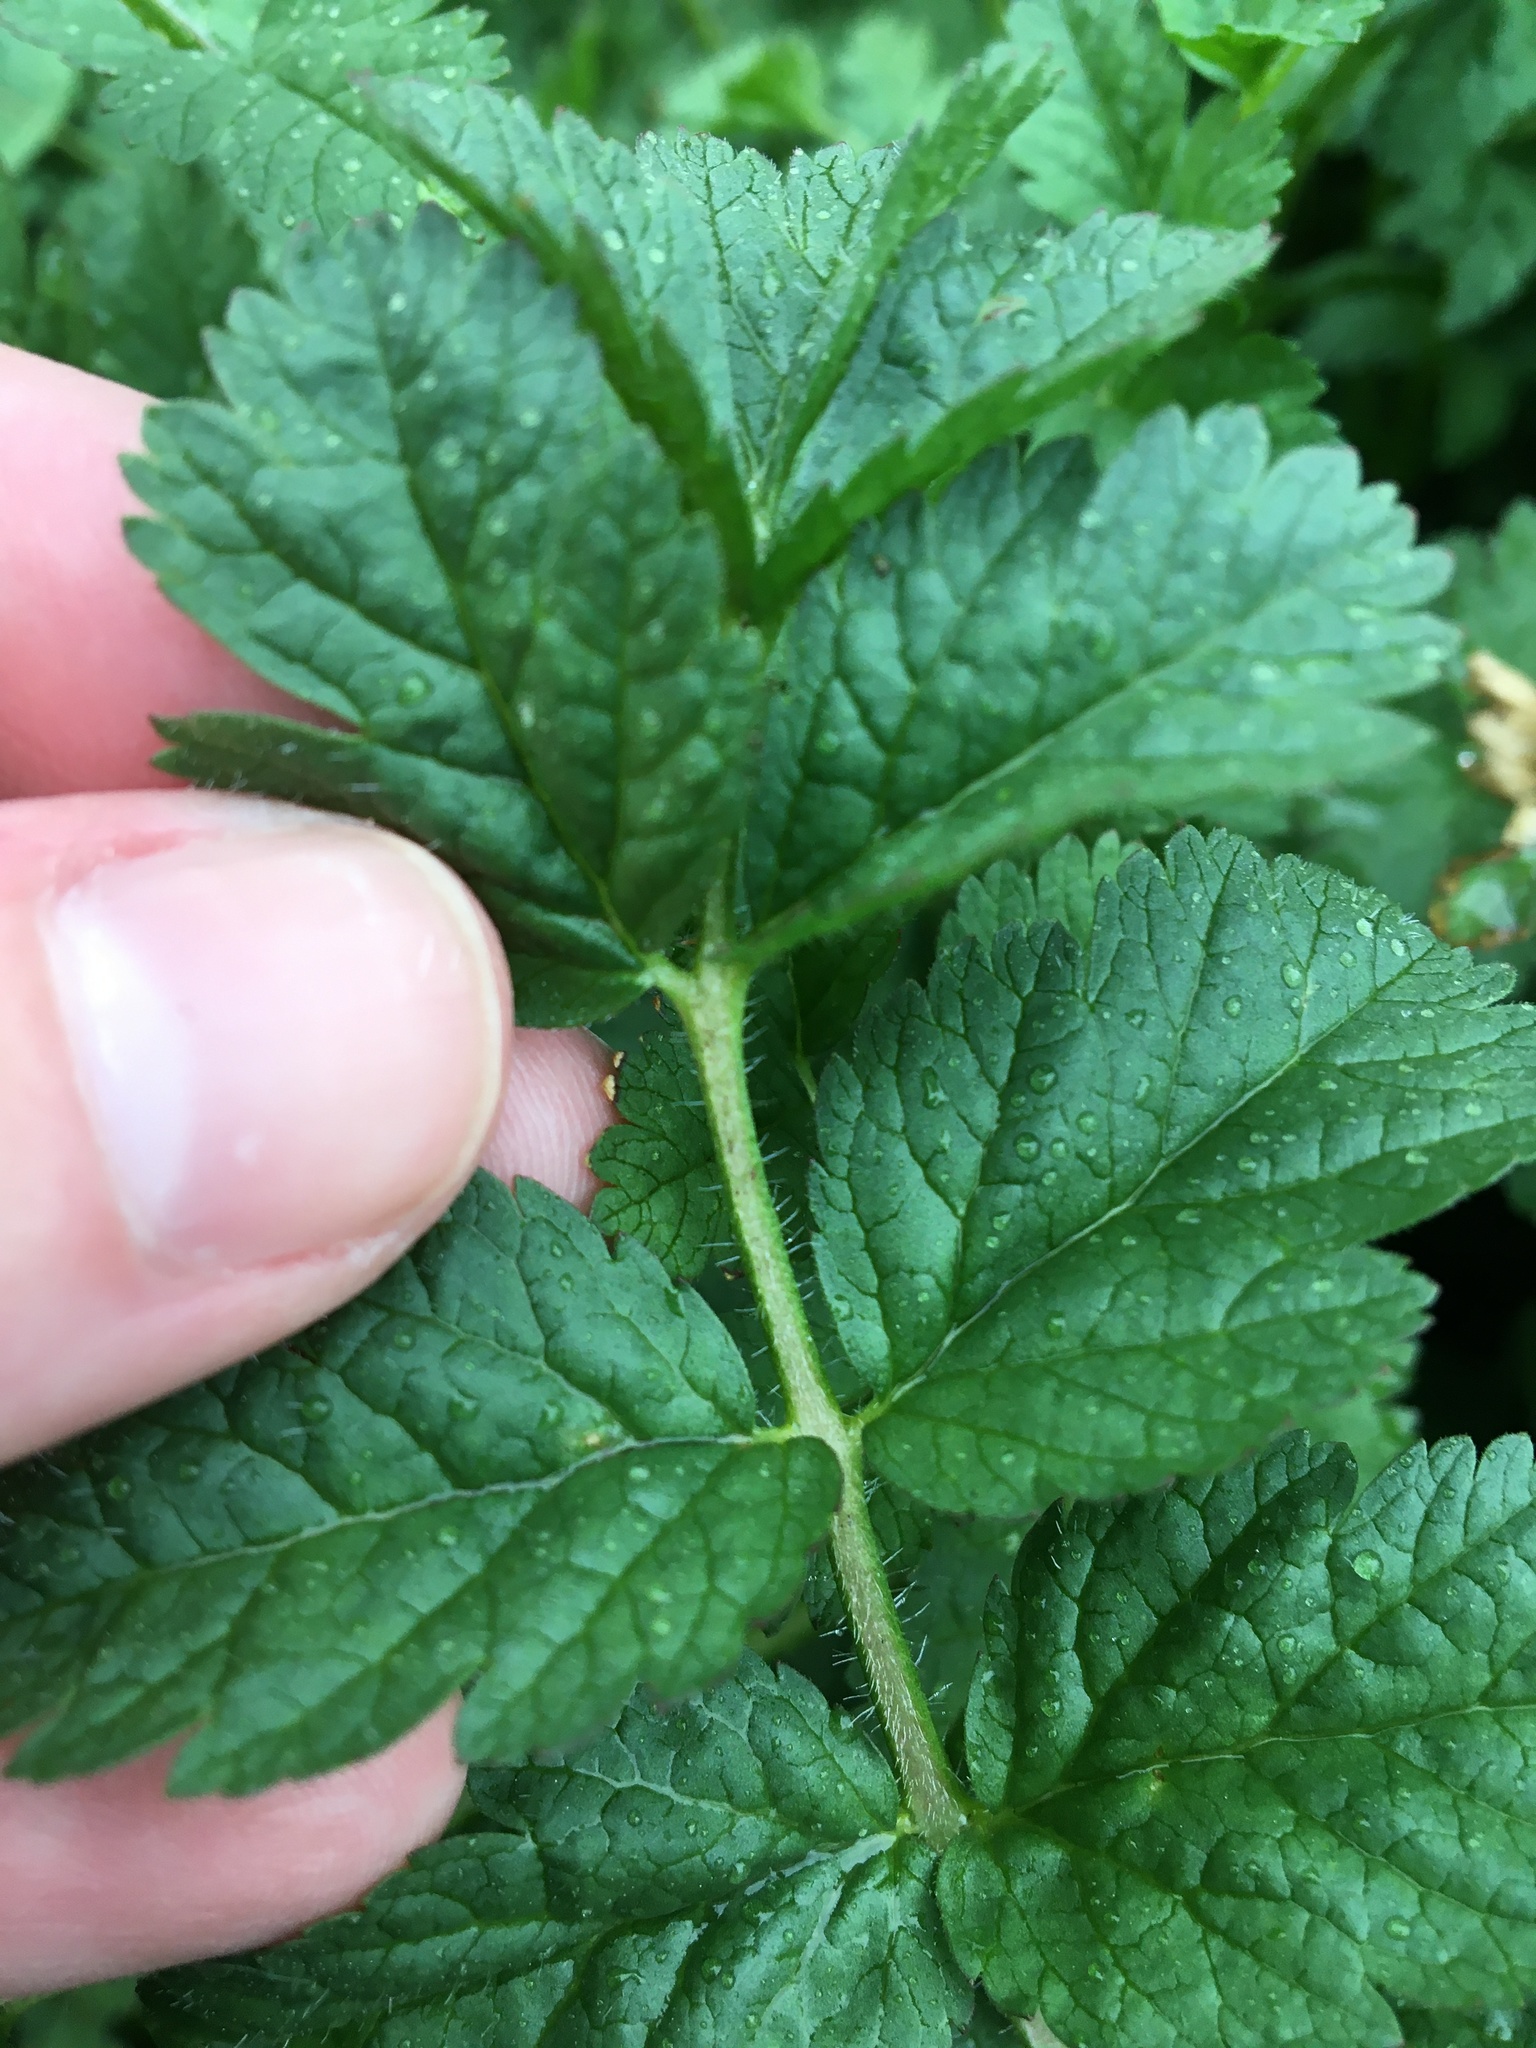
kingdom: Plantae
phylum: Tracheophyta
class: Magnoliopsida
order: Geraniales
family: Geraniaceae
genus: Erodium
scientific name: Erodium moschatum
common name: Musk stork's-bill
